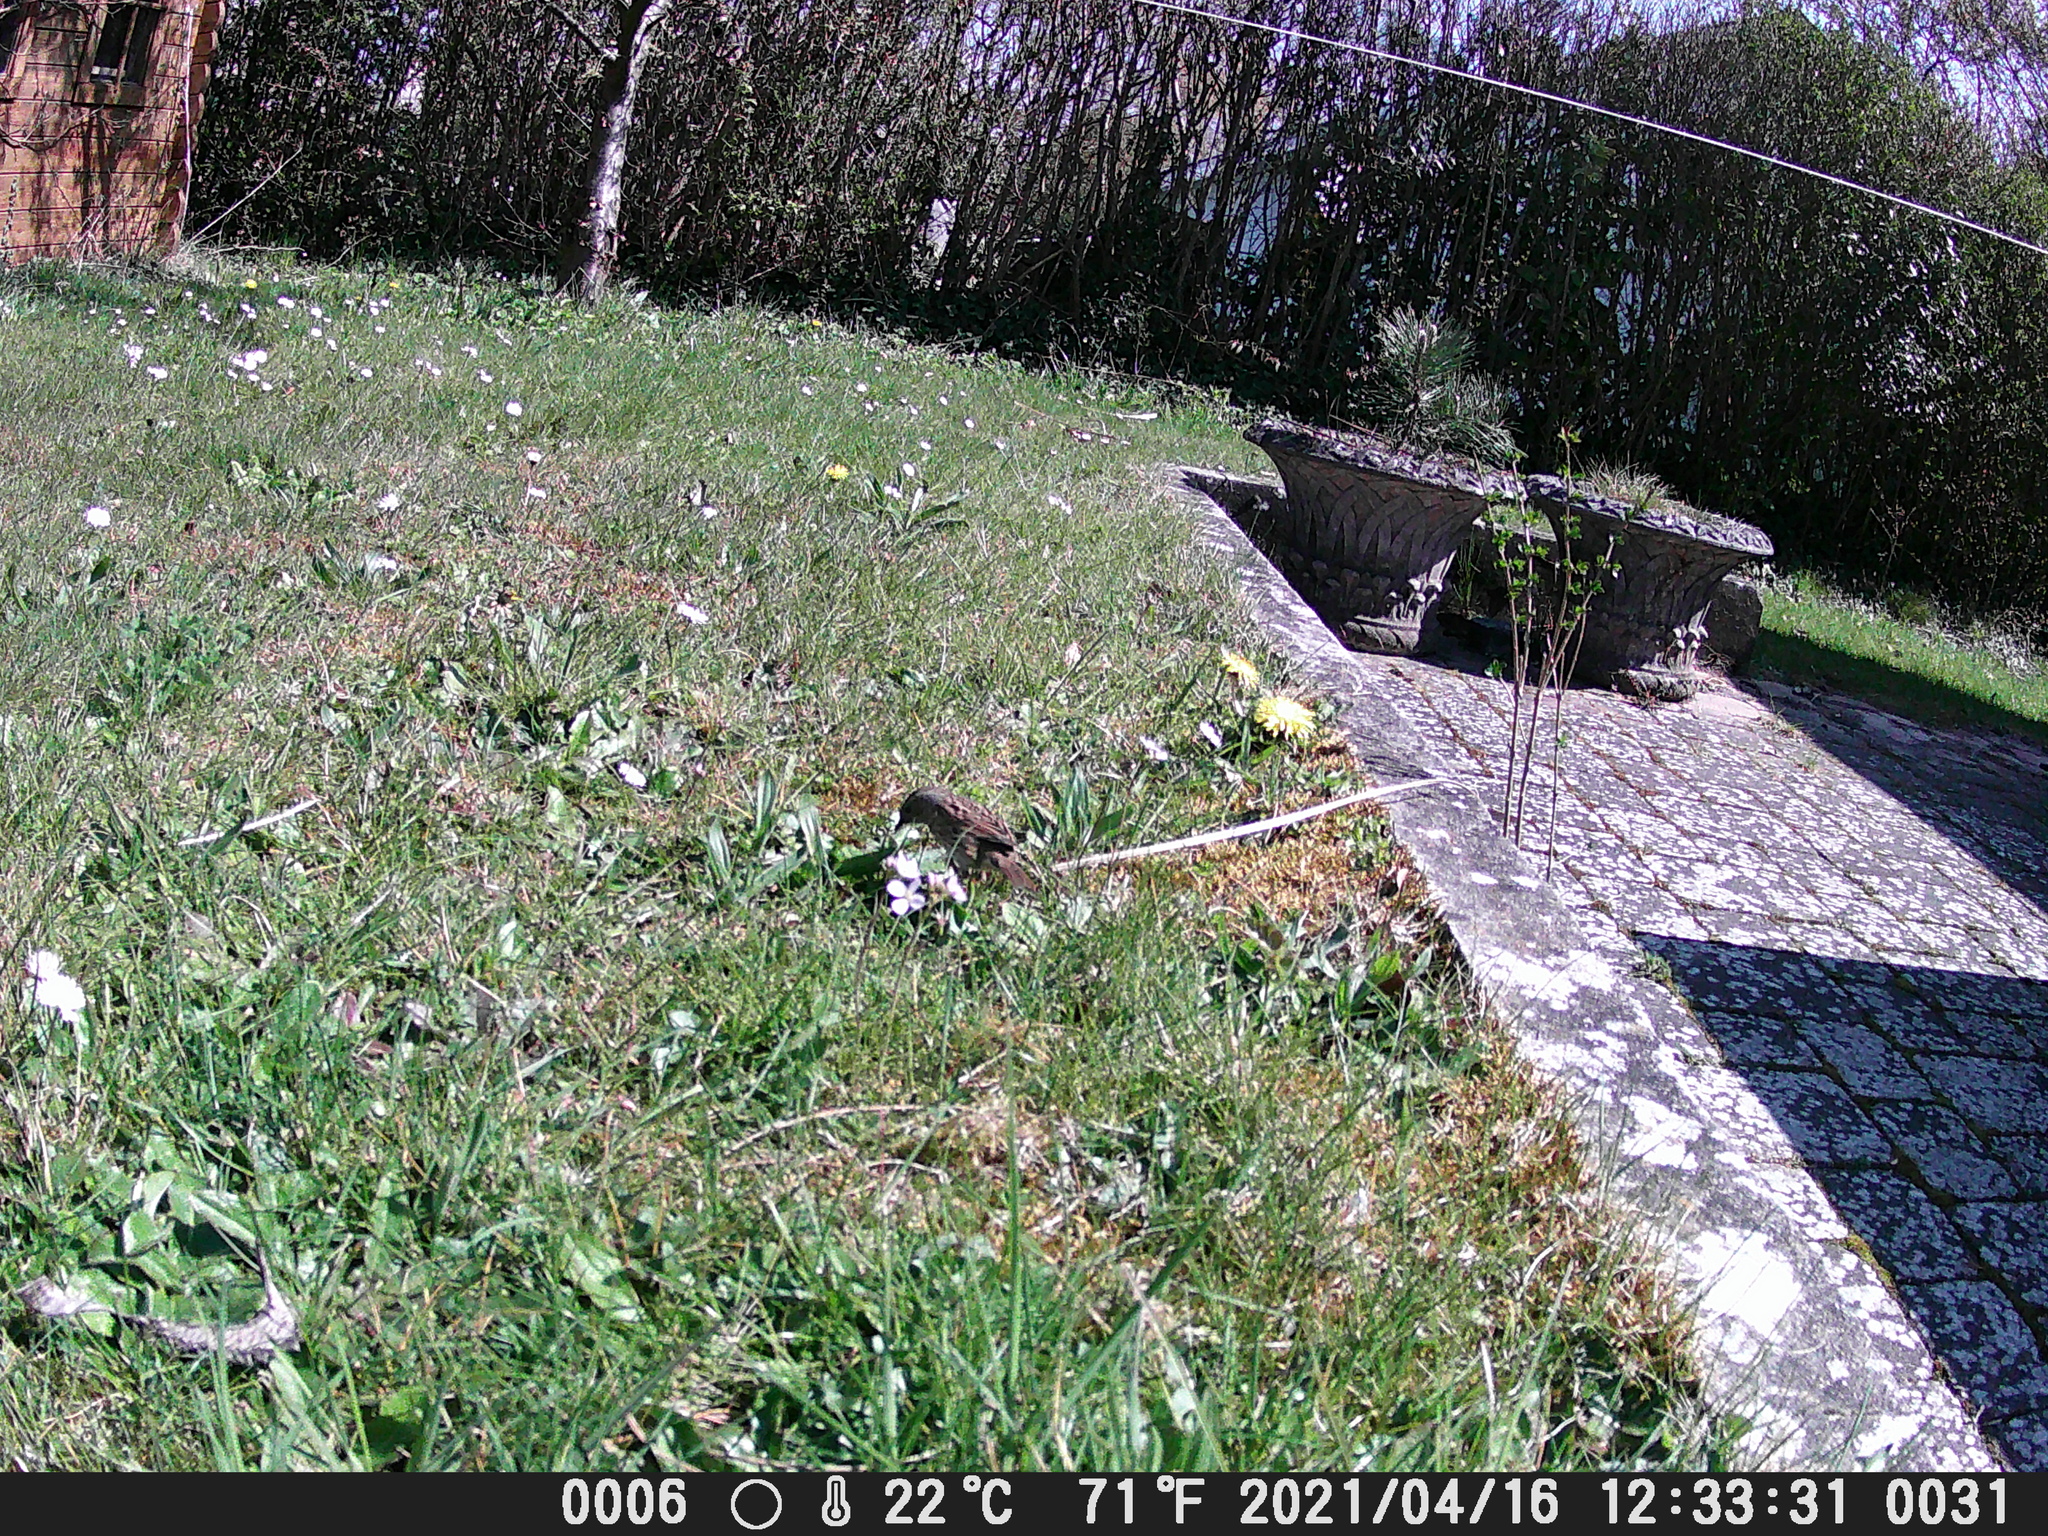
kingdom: Animalia
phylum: Chordata
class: Aves
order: Passeriformes
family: Prunellidae
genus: Prunella
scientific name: Prunella modularis
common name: Dunnock
